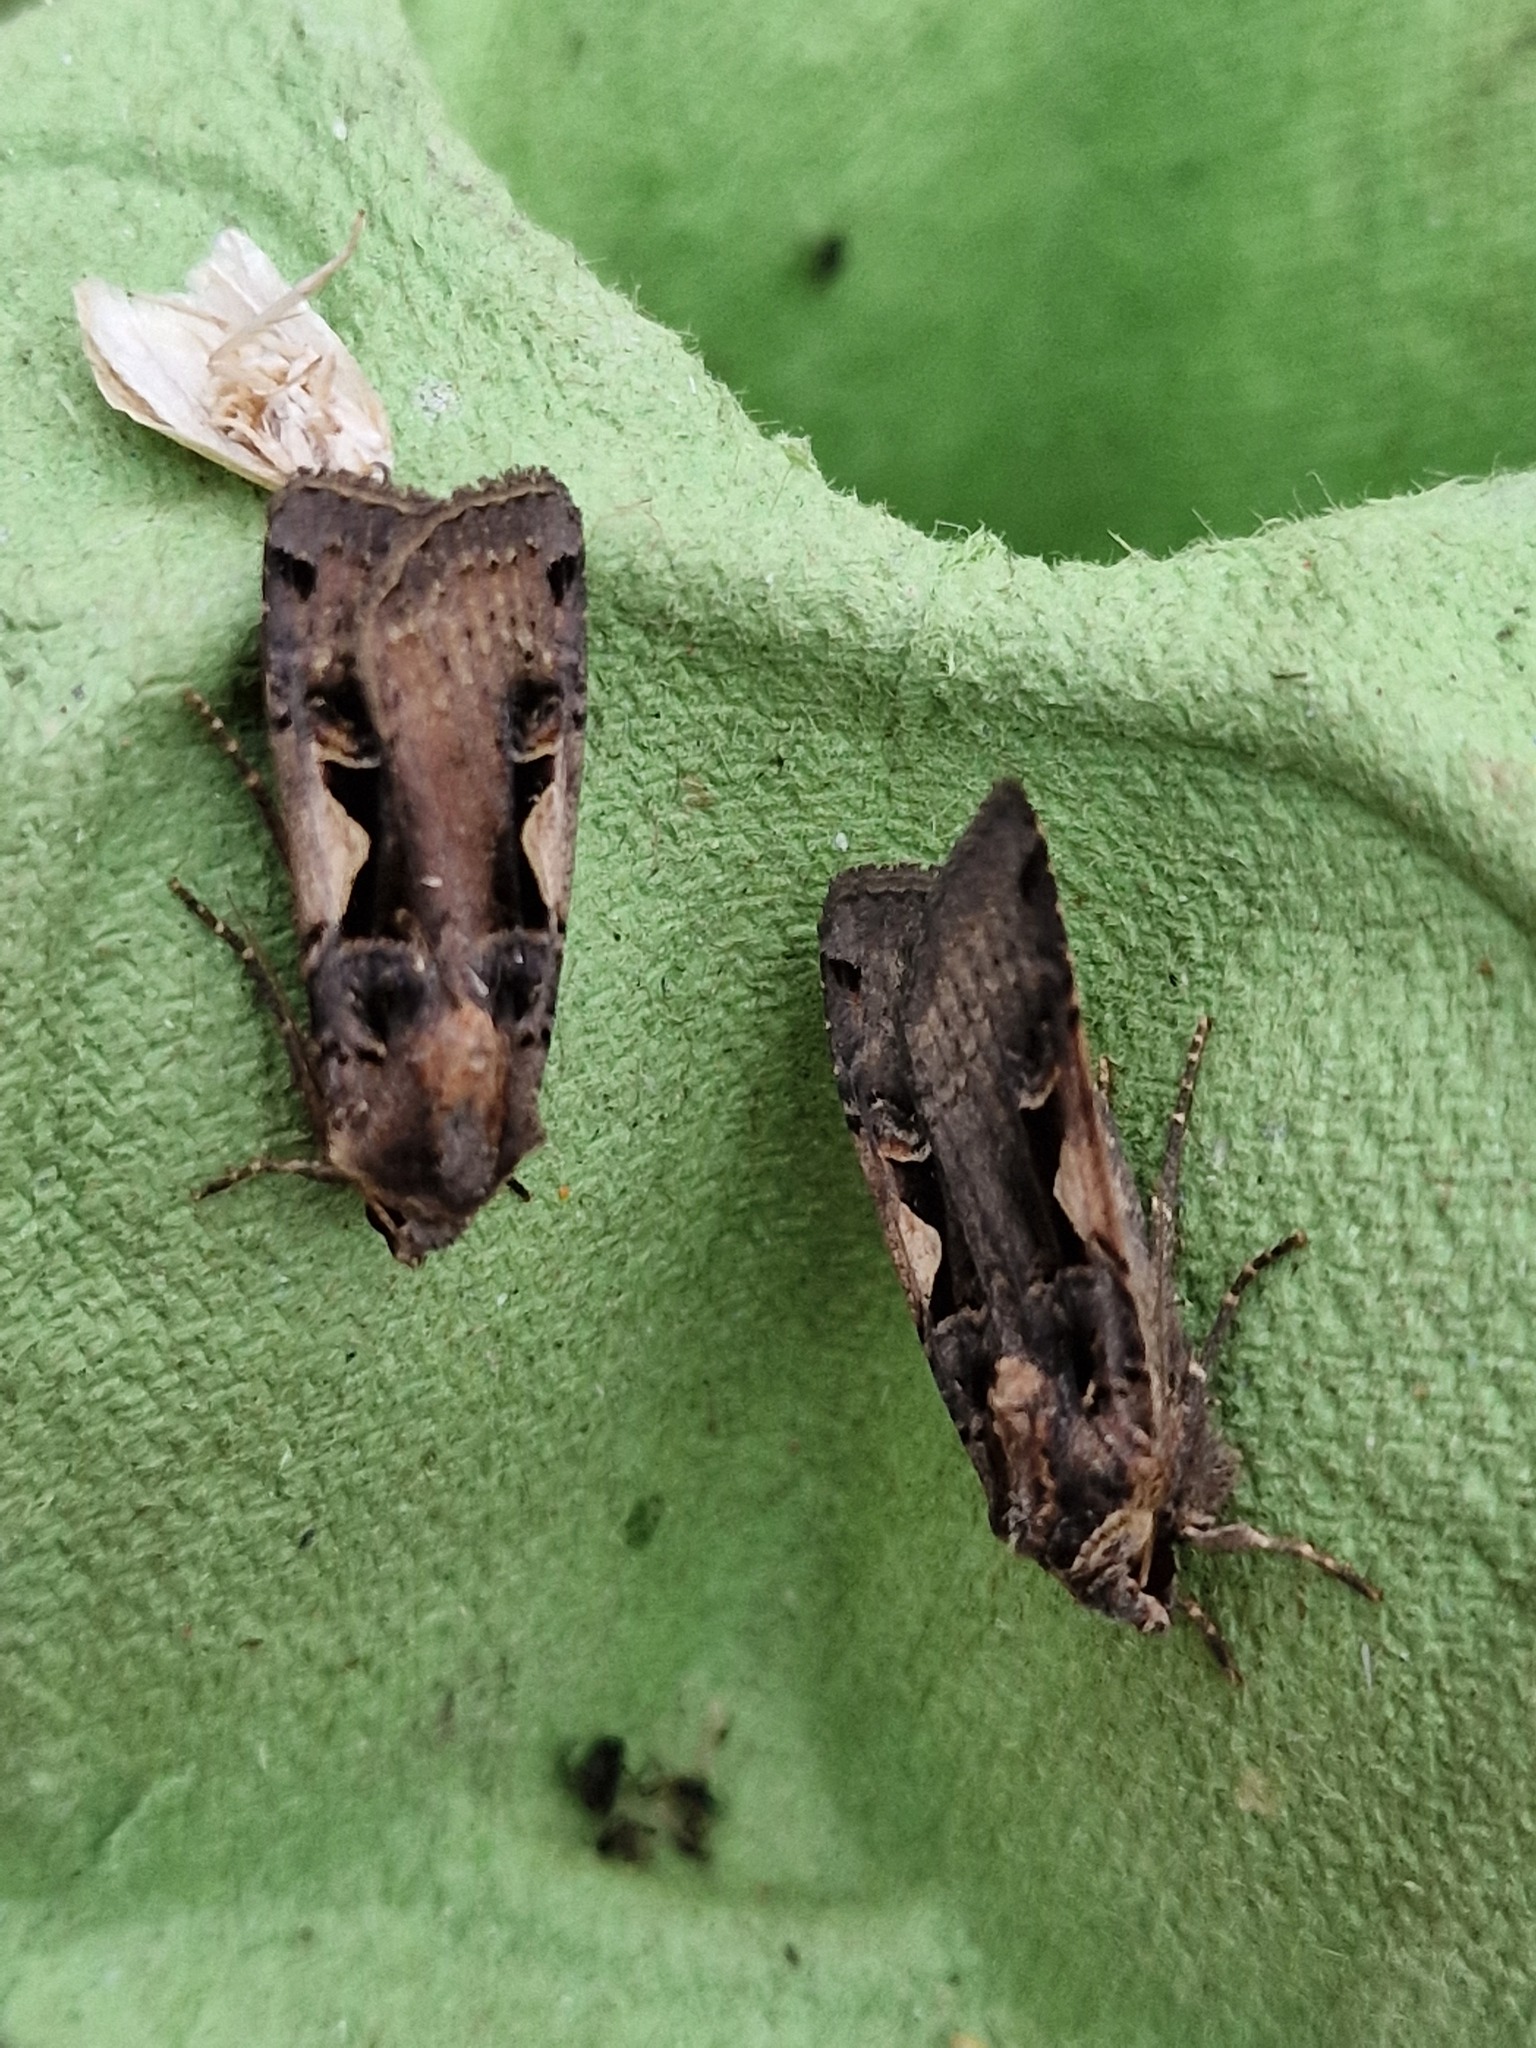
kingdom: Animalia
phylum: Arthropoda
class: Insecta
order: Lepidoptera
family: Noctuidae
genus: Xestia
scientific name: Xestia c-nigrum
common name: Setaceous hebrew character
